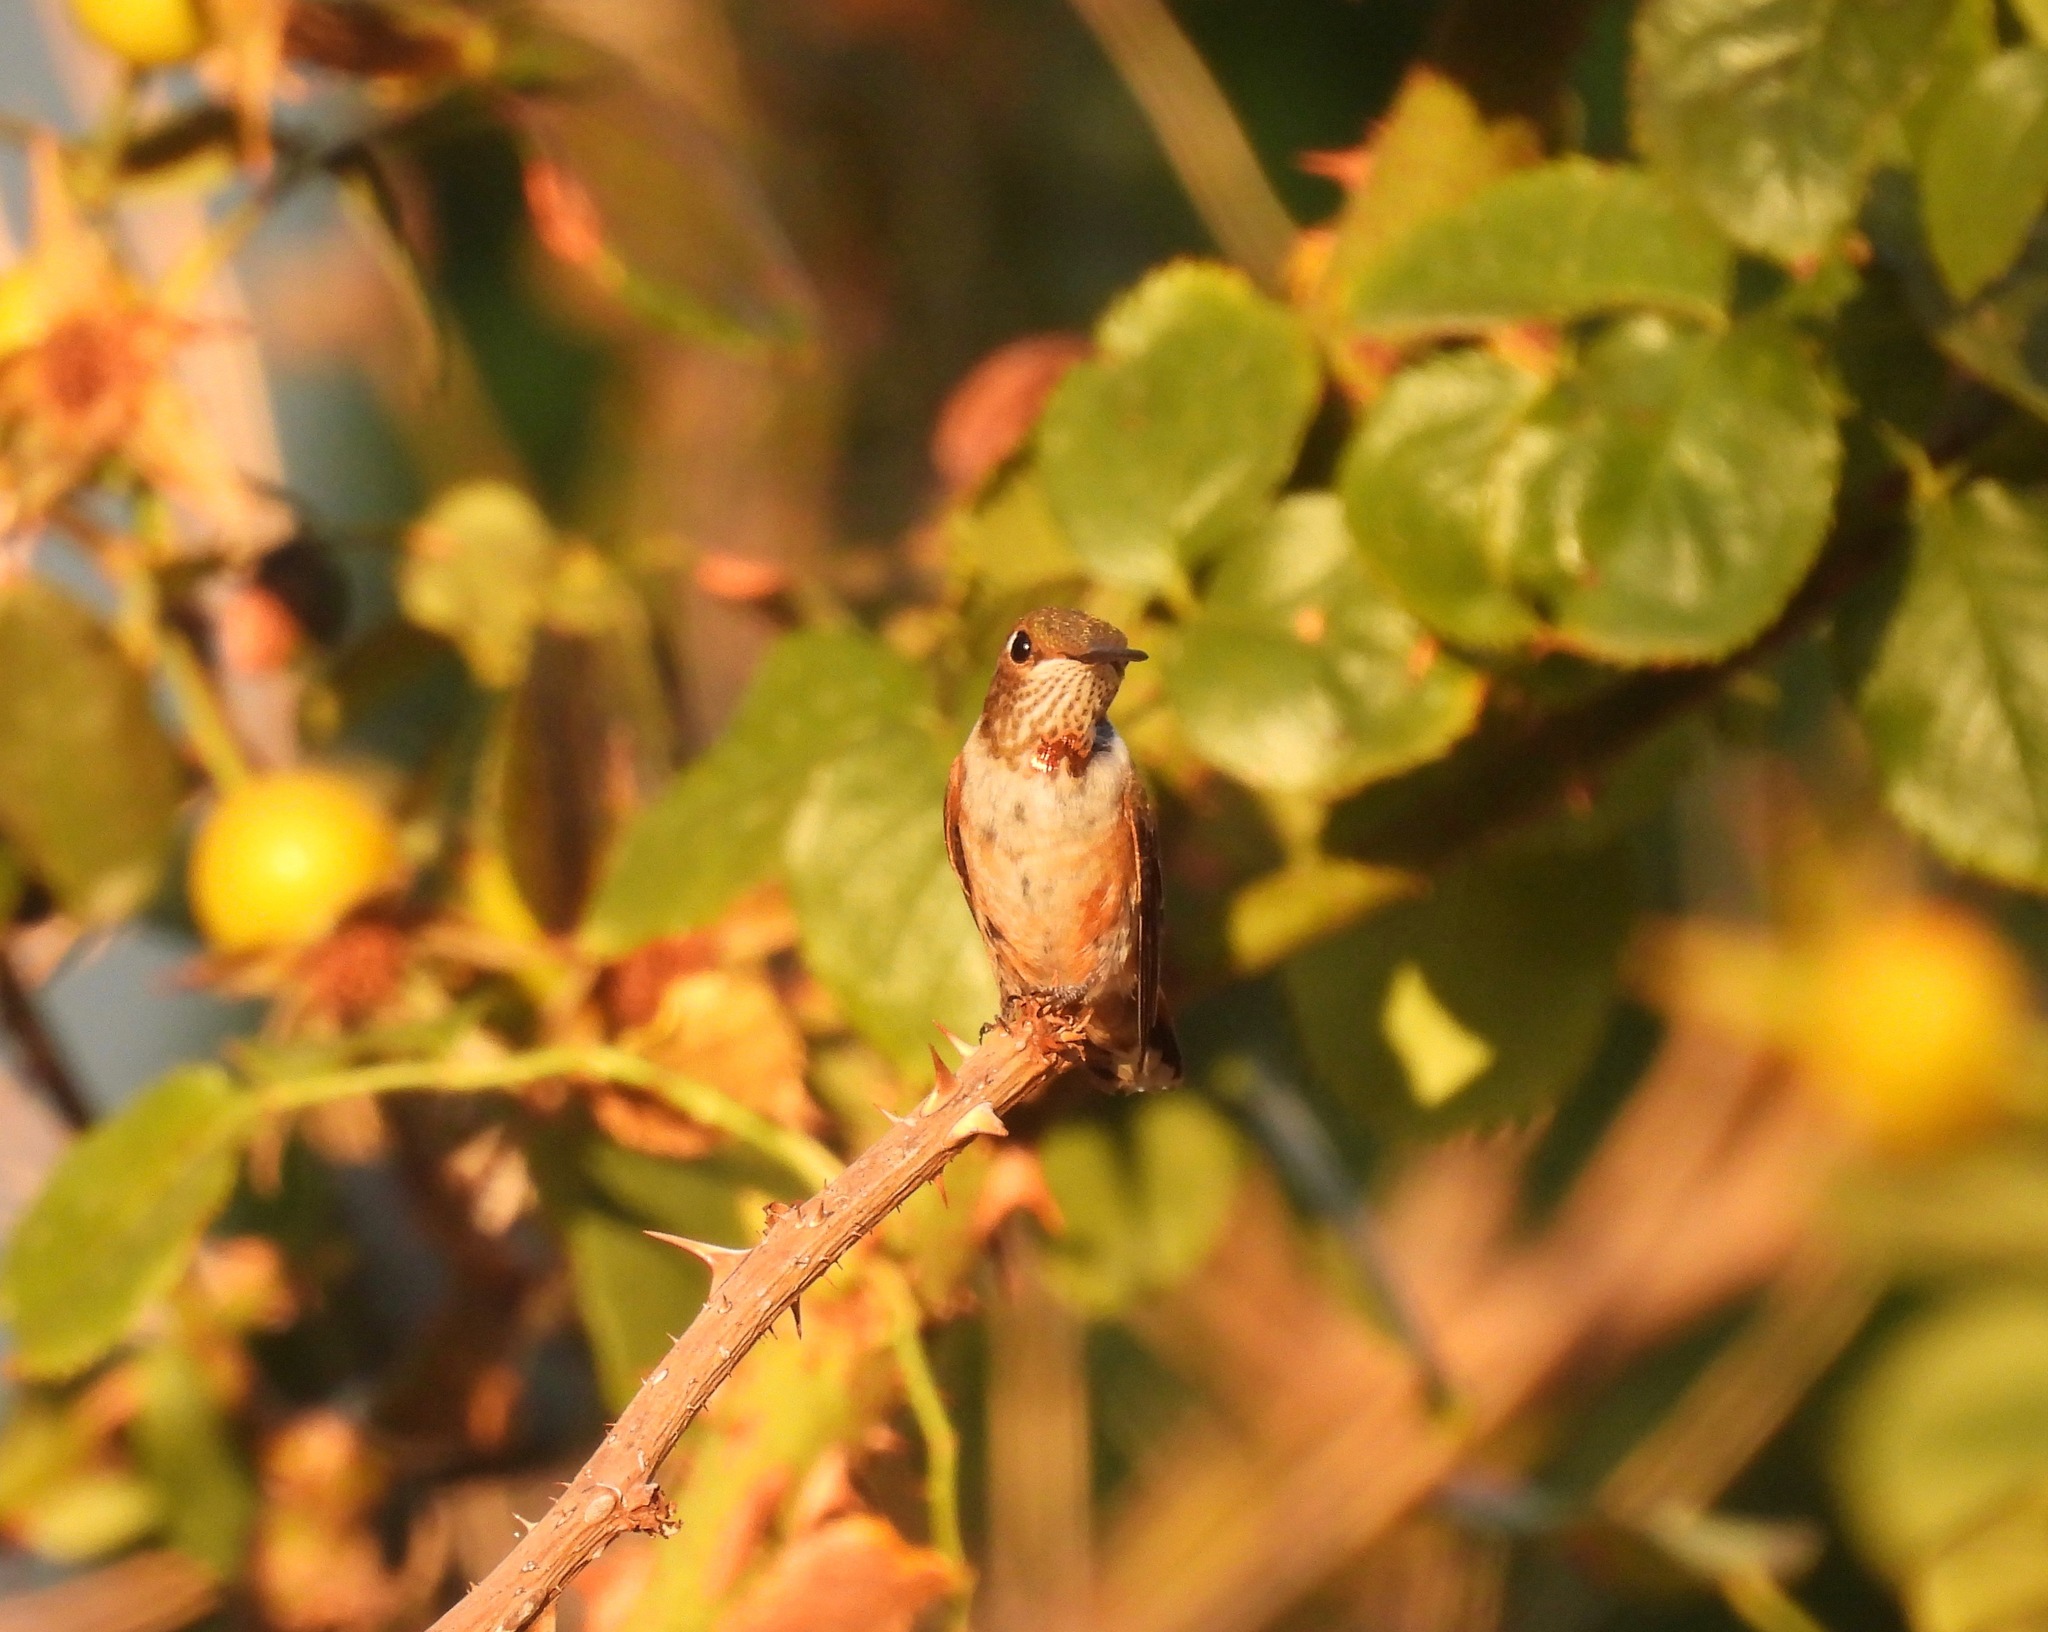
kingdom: Animalia
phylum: Chordata
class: Aves
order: Apodiformes
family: Trochilidae
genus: Selasphorus
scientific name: Selasphorus rufus
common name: Rufous hummingbird
